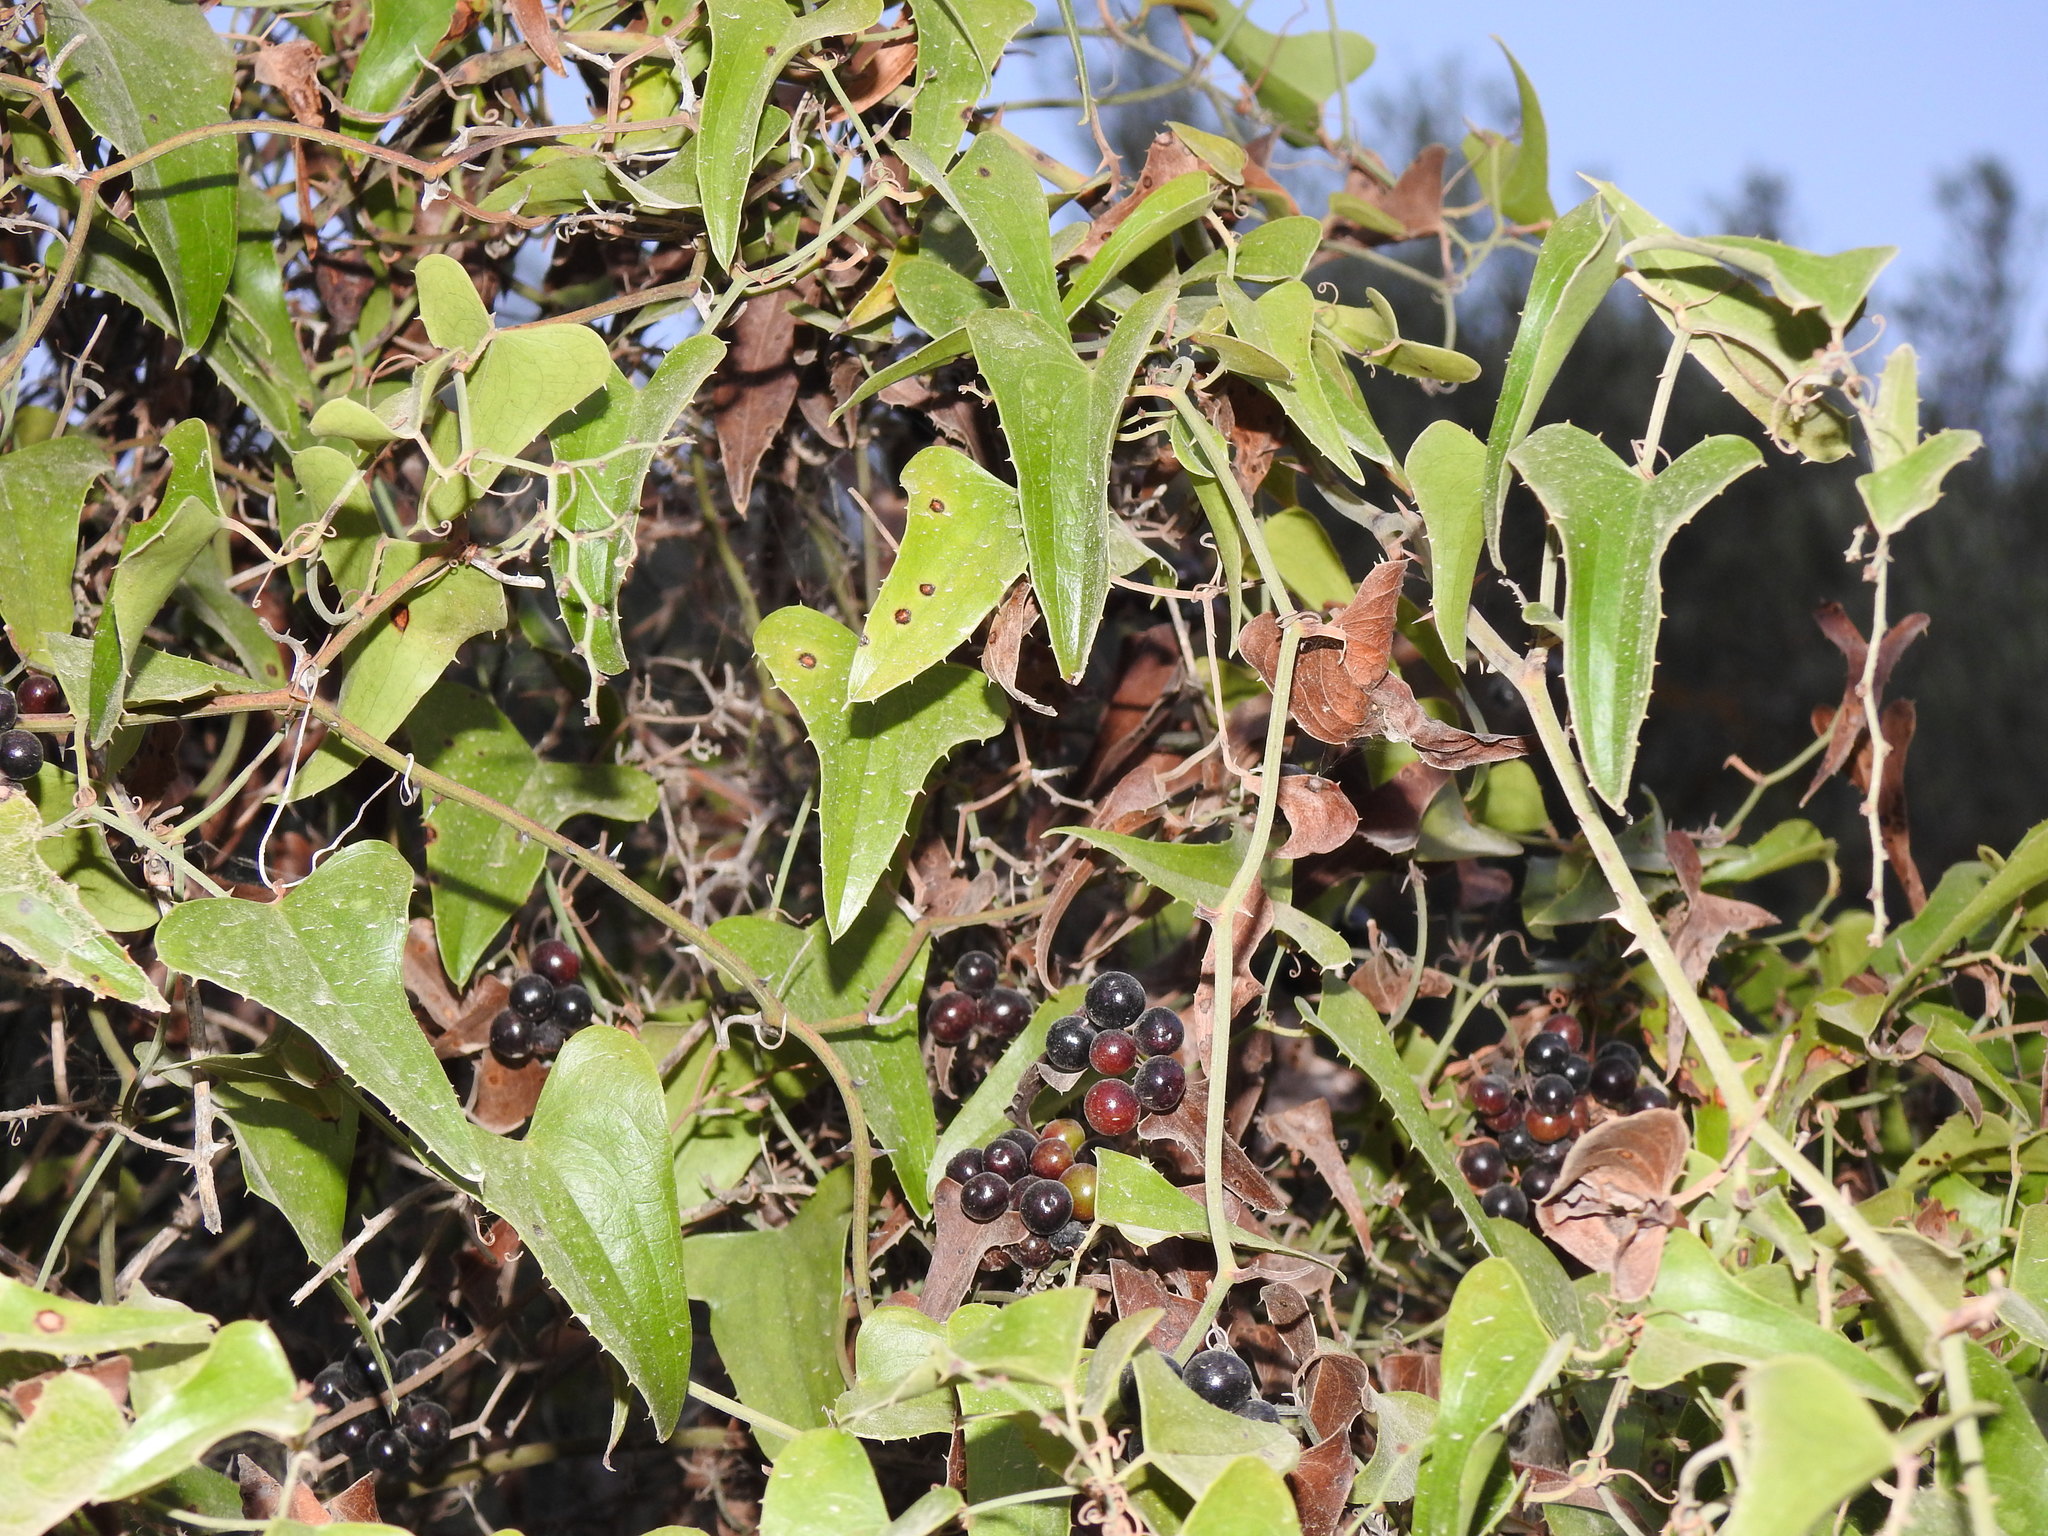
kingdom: Plantae
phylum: Tracheophyta
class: Liliopsida
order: Liliales
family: Smilacaceae
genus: Smilax
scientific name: Smilax aspera
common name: Common smilax
